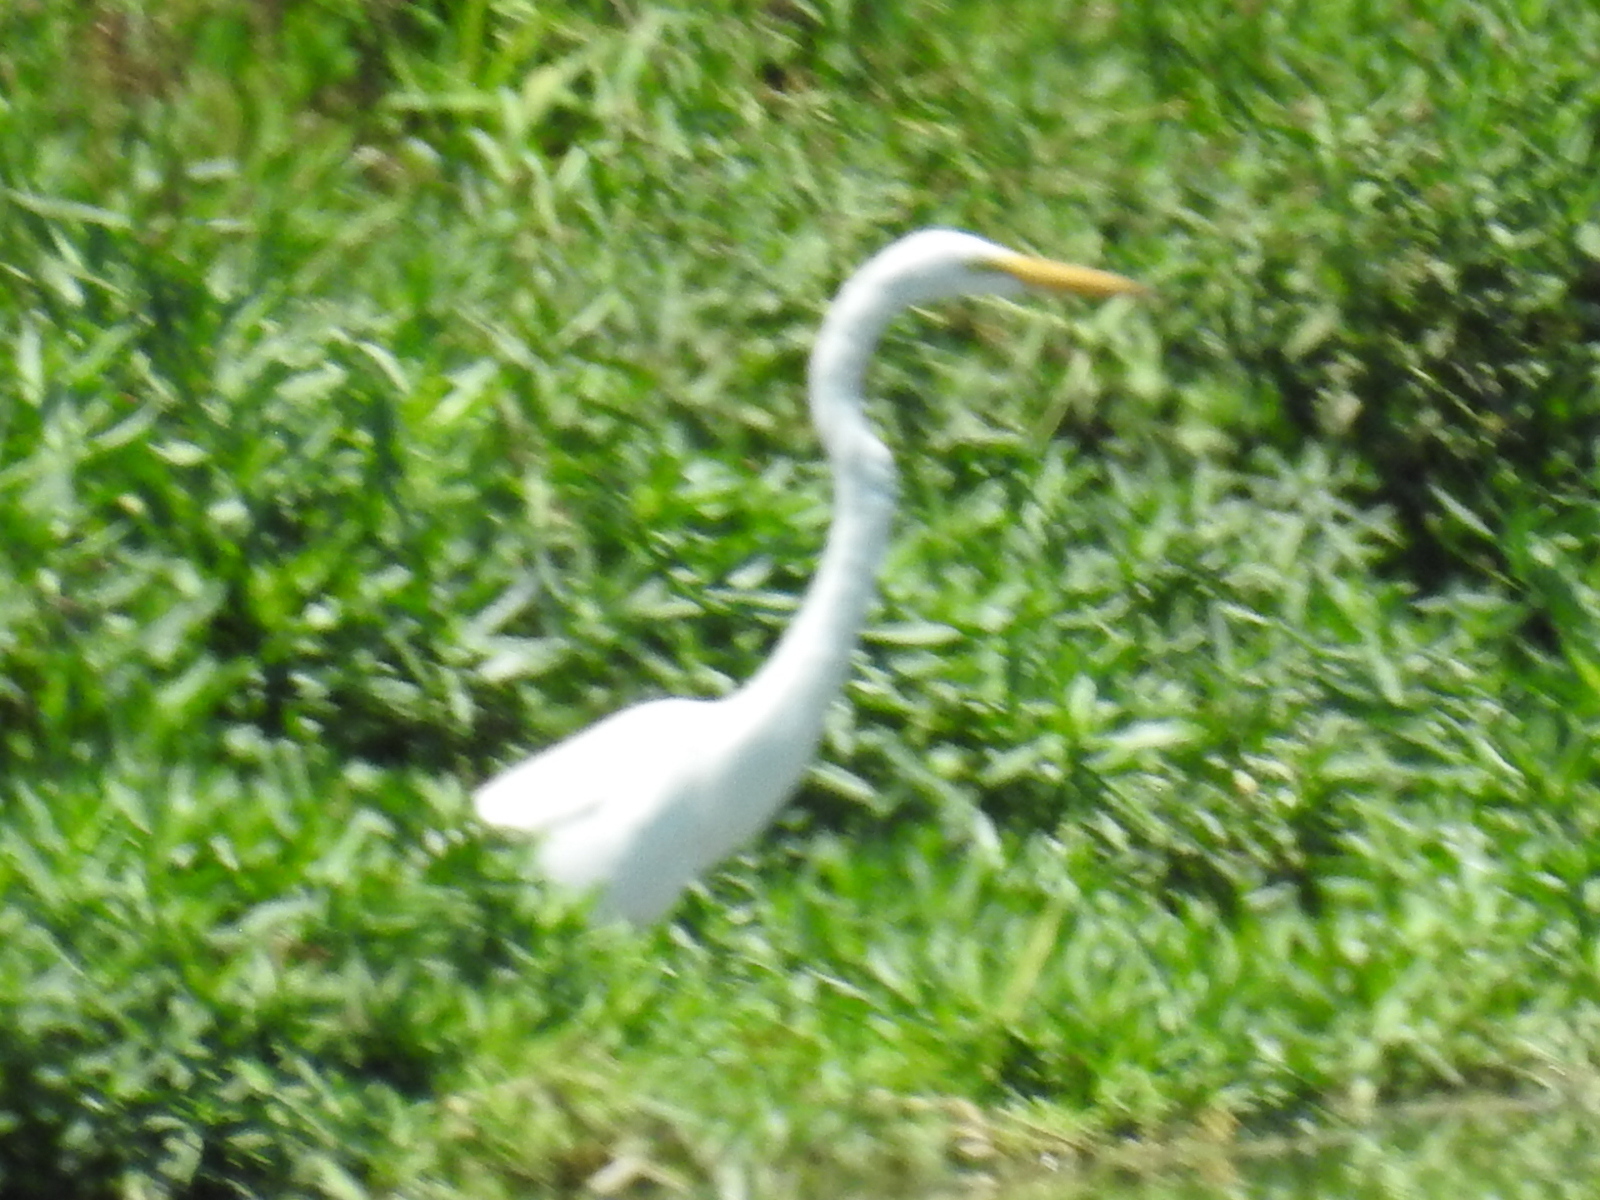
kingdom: Animalia
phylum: Chordata
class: Aves
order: Pelecaniformes
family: Ardeidae
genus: Ardea
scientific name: Ardea alba
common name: Great egret
